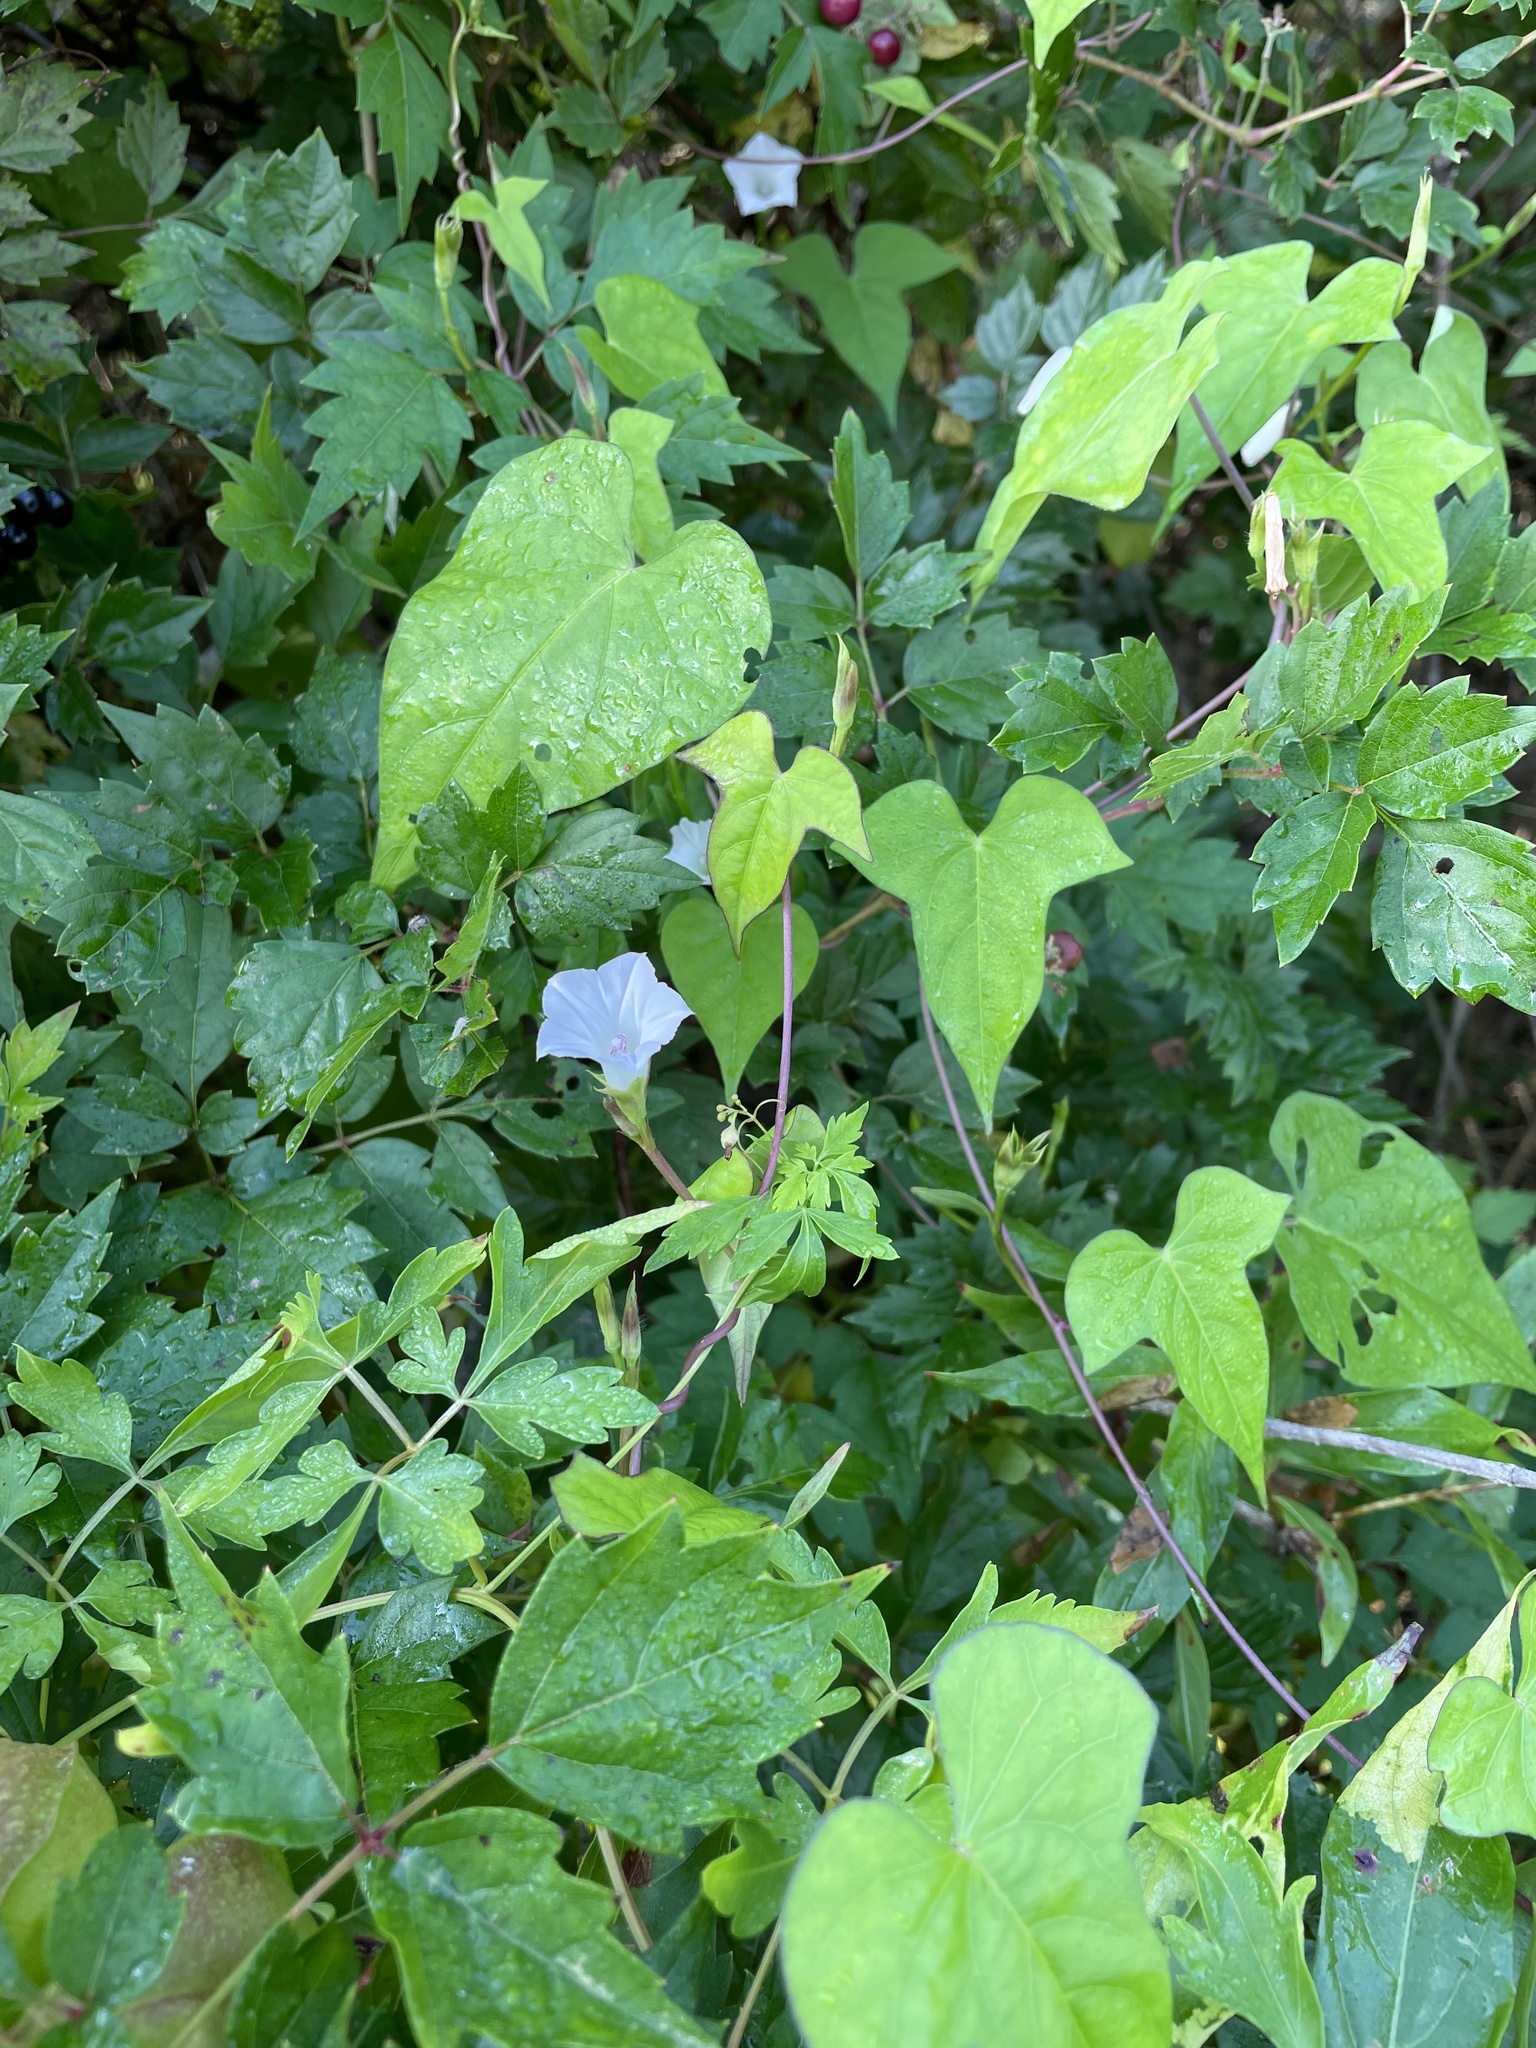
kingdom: Plantae
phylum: Tracheophyta
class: Magnoliopsida
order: Solanales
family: Convolvulaceae
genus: Ipomoea
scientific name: Ipomoea lacunosa
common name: White morning-glory
